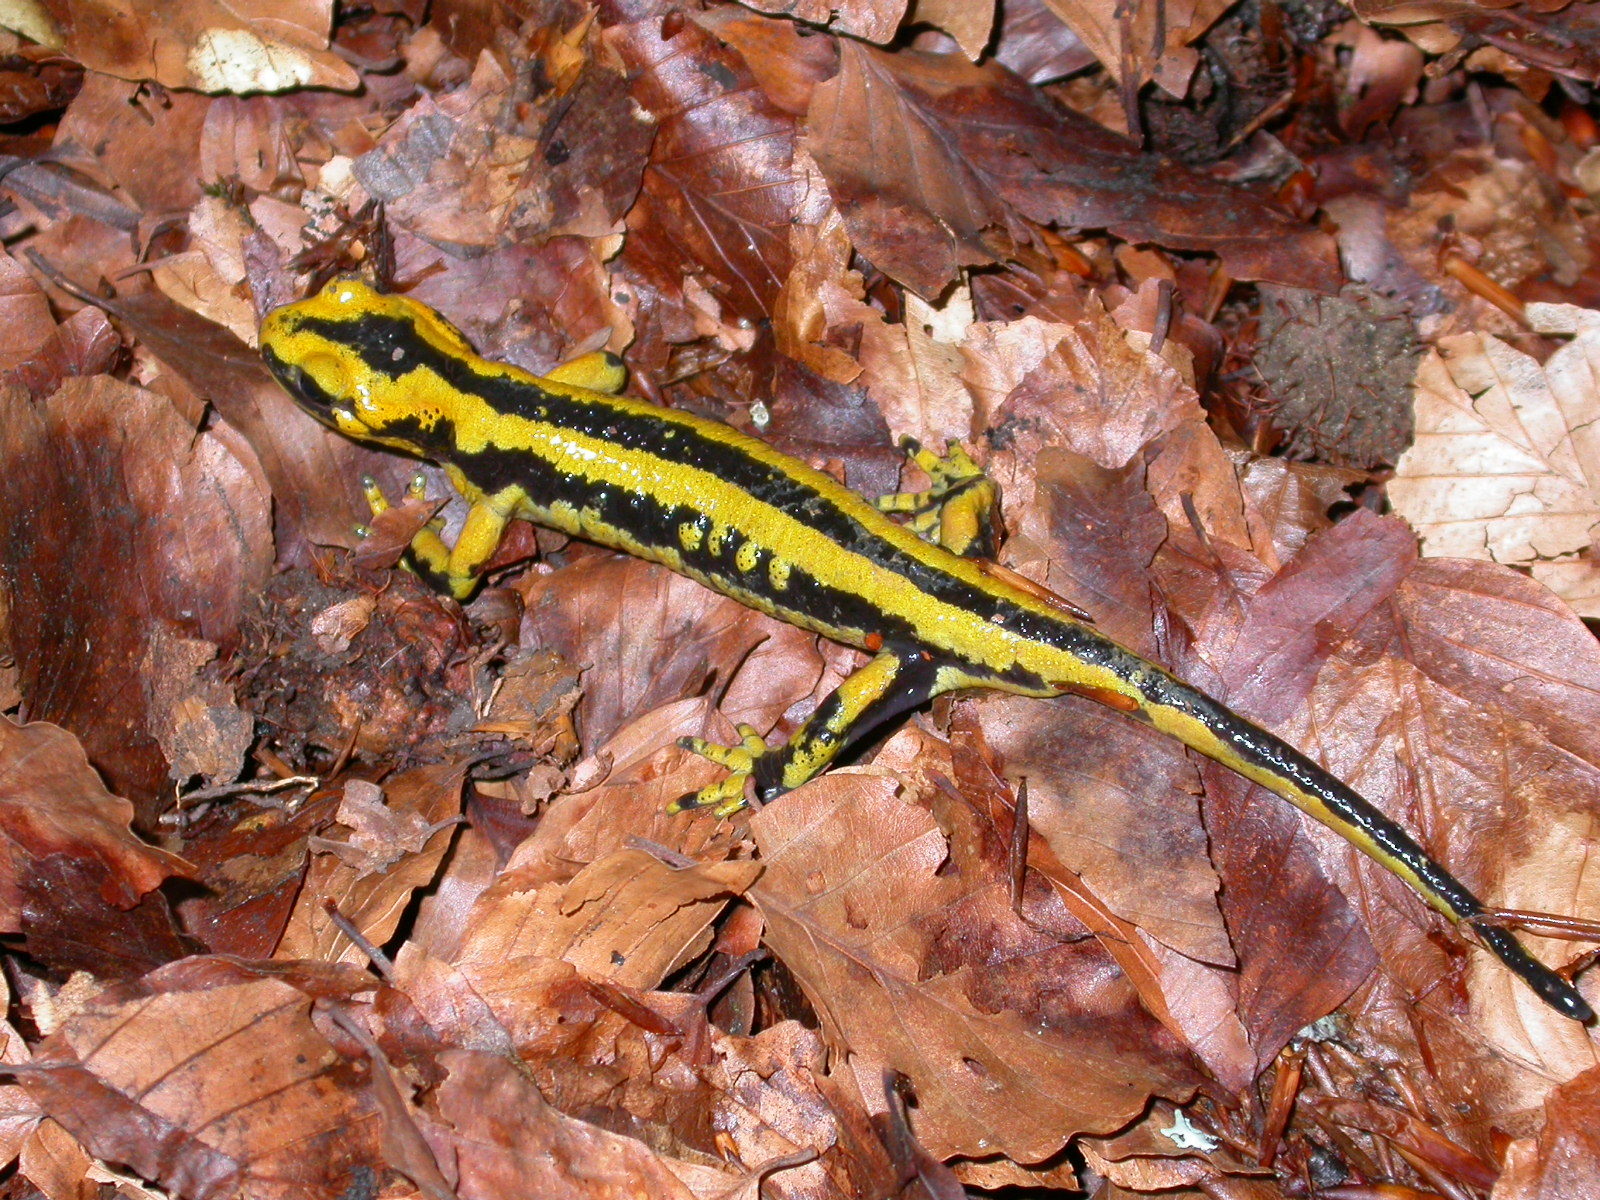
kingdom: Animalia
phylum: Chordata
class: Amphibia
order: Caudata
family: Salamandridae
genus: Salamandra
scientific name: Salamandra salamandra
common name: Fire salamander
